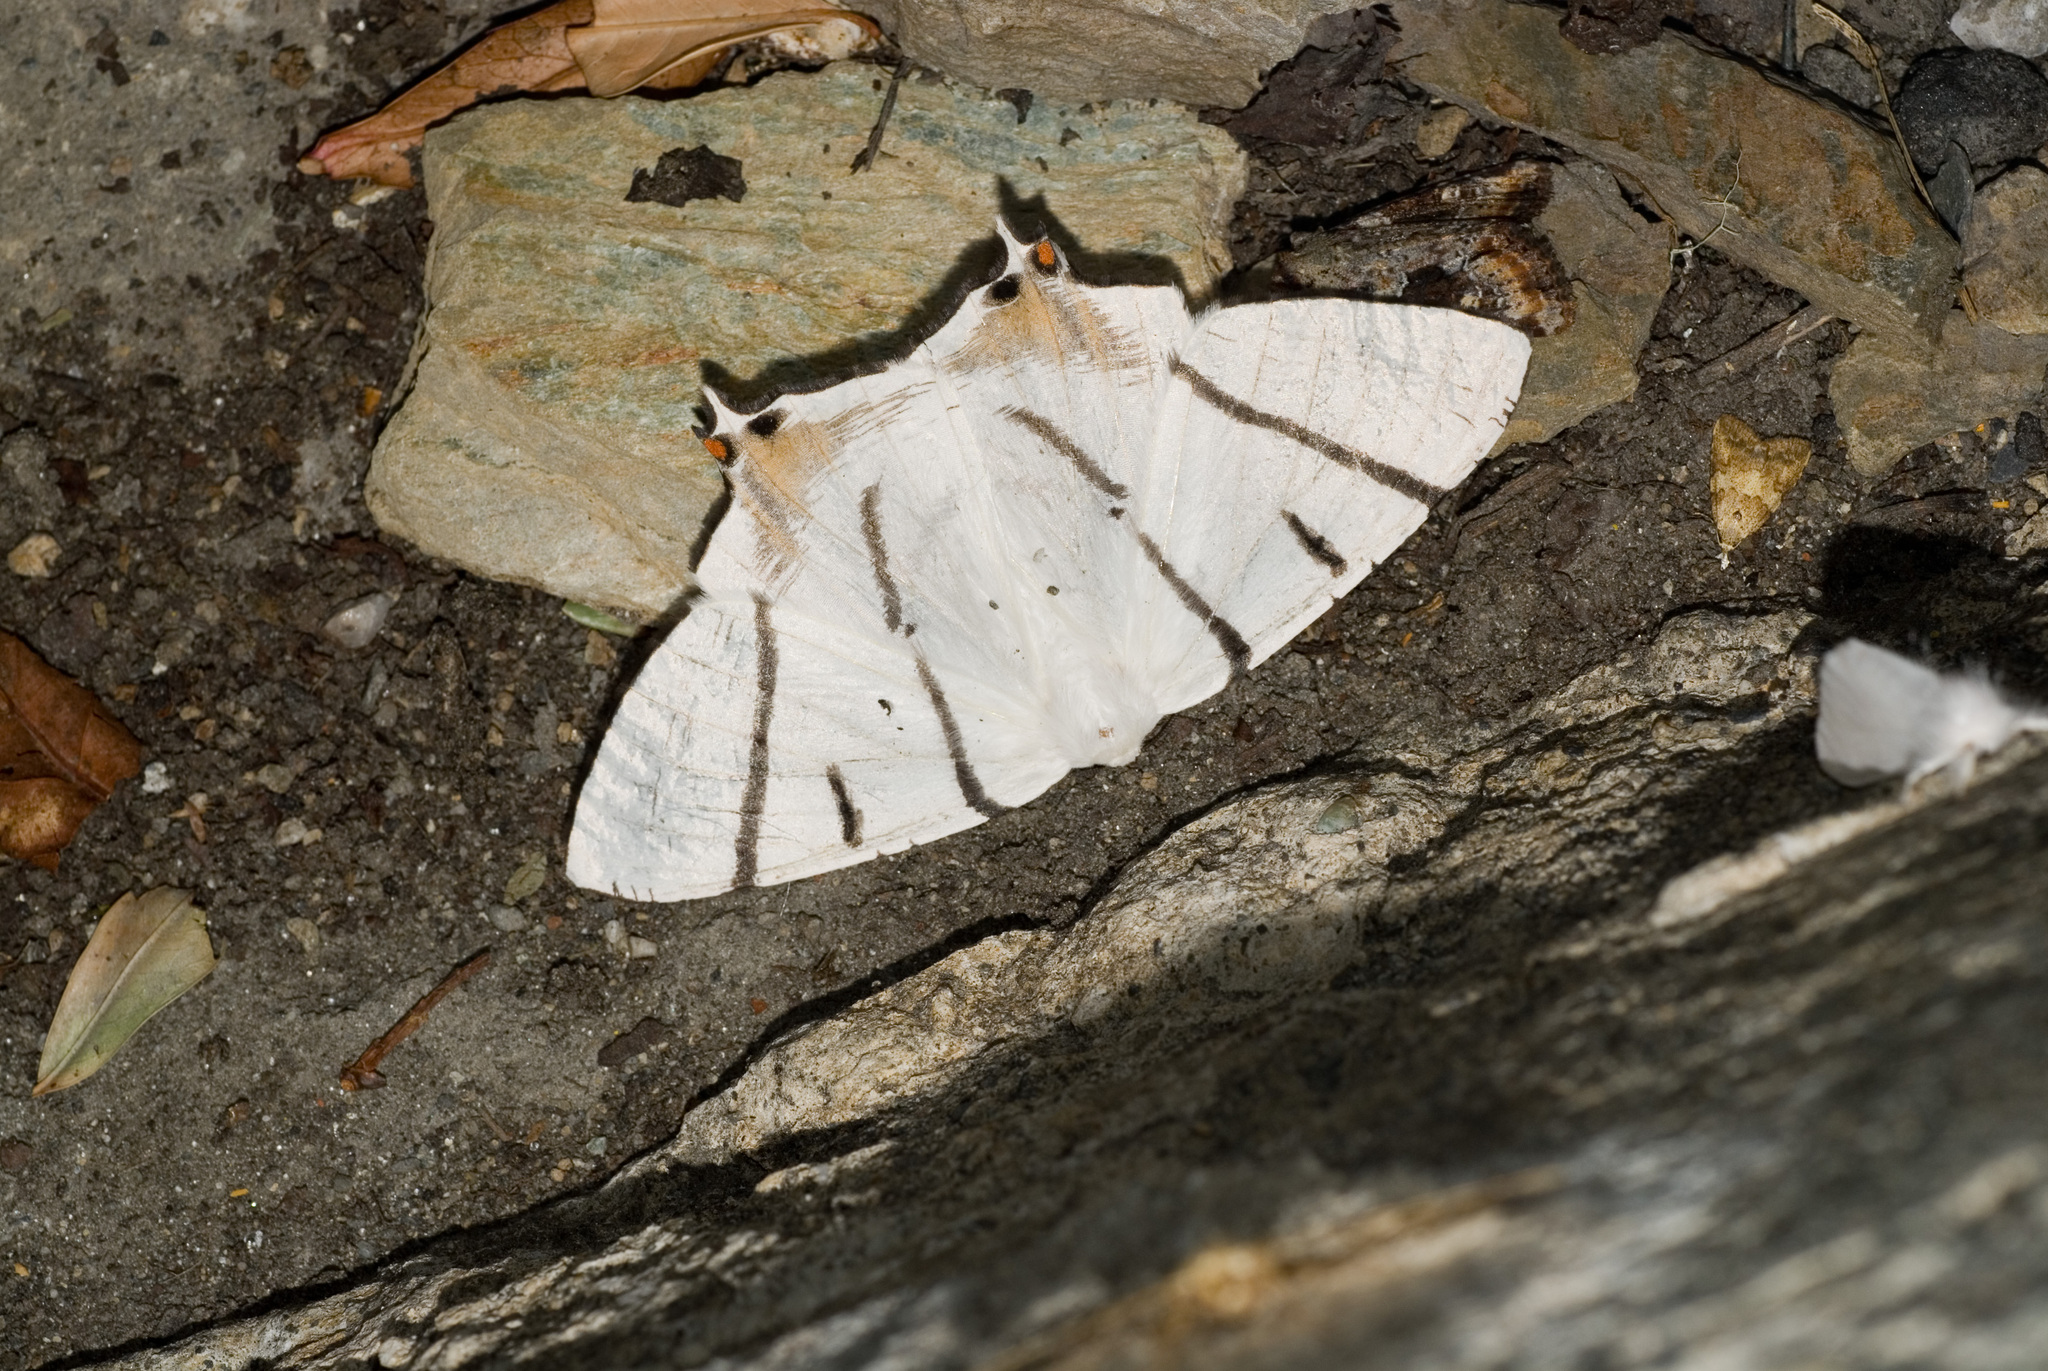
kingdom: Animalia
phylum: Arthropoda
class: Insecta
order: Lepidoptera
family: Geometridae
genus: Ourapteryx
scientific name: Ourapteryx nigrociliaris
